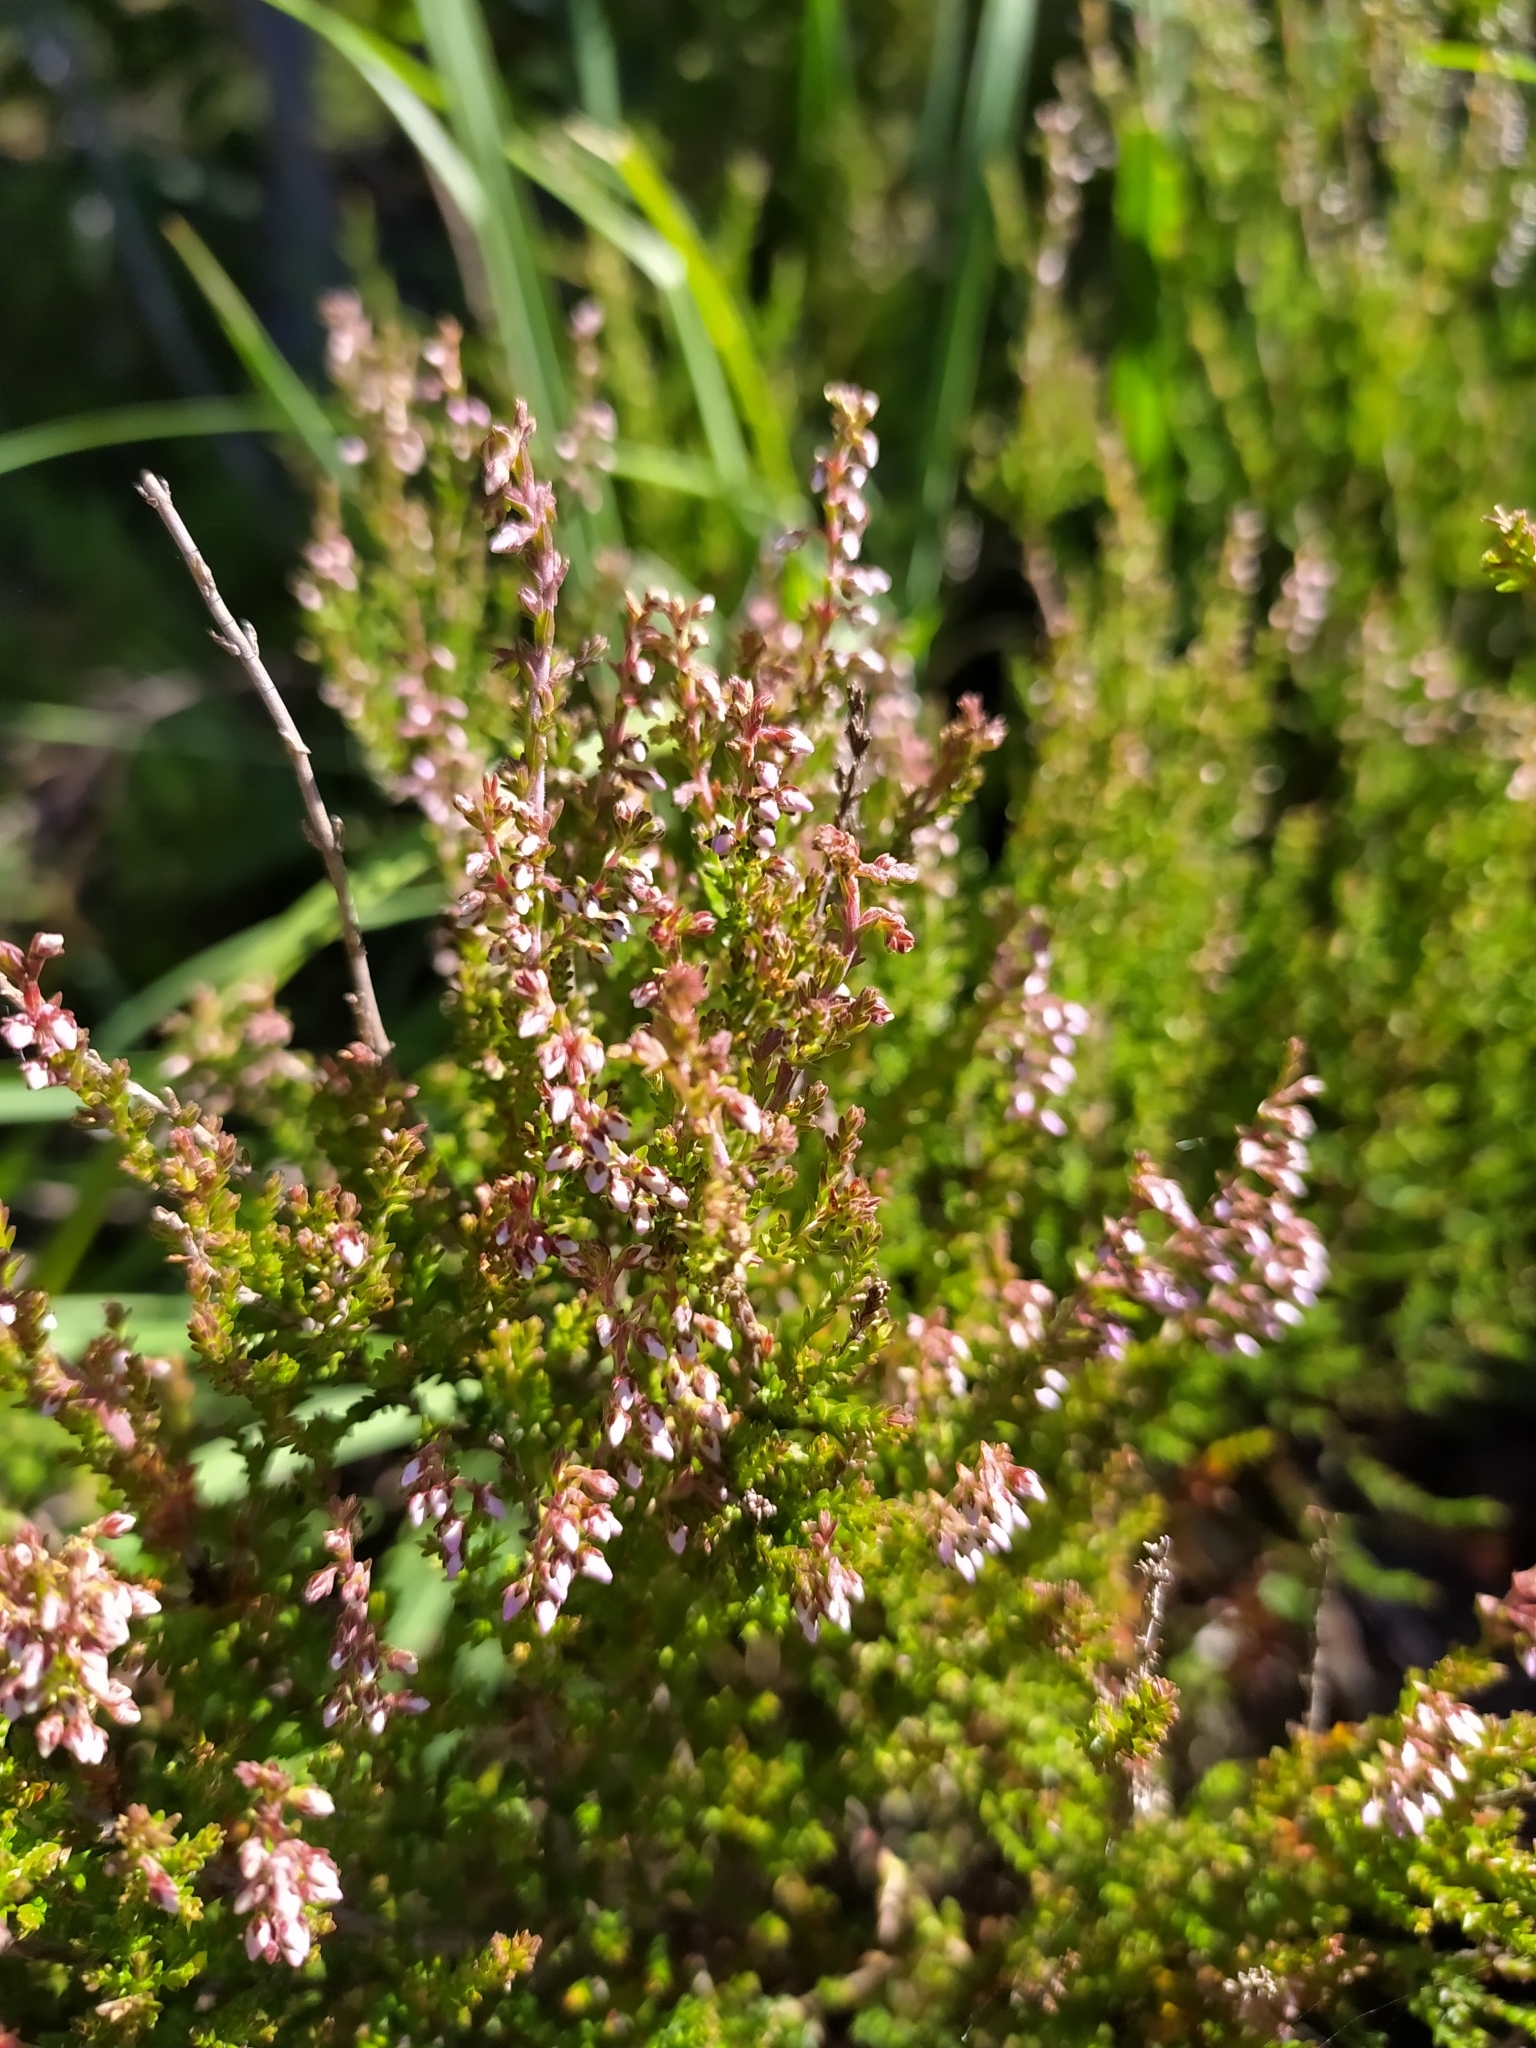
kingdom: Plantae
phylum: Tracheophyta
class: Magnoliopsida
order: Ericales
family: Ericaceae
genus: Calluna
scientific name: Calluna vulgaris
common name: Heather
